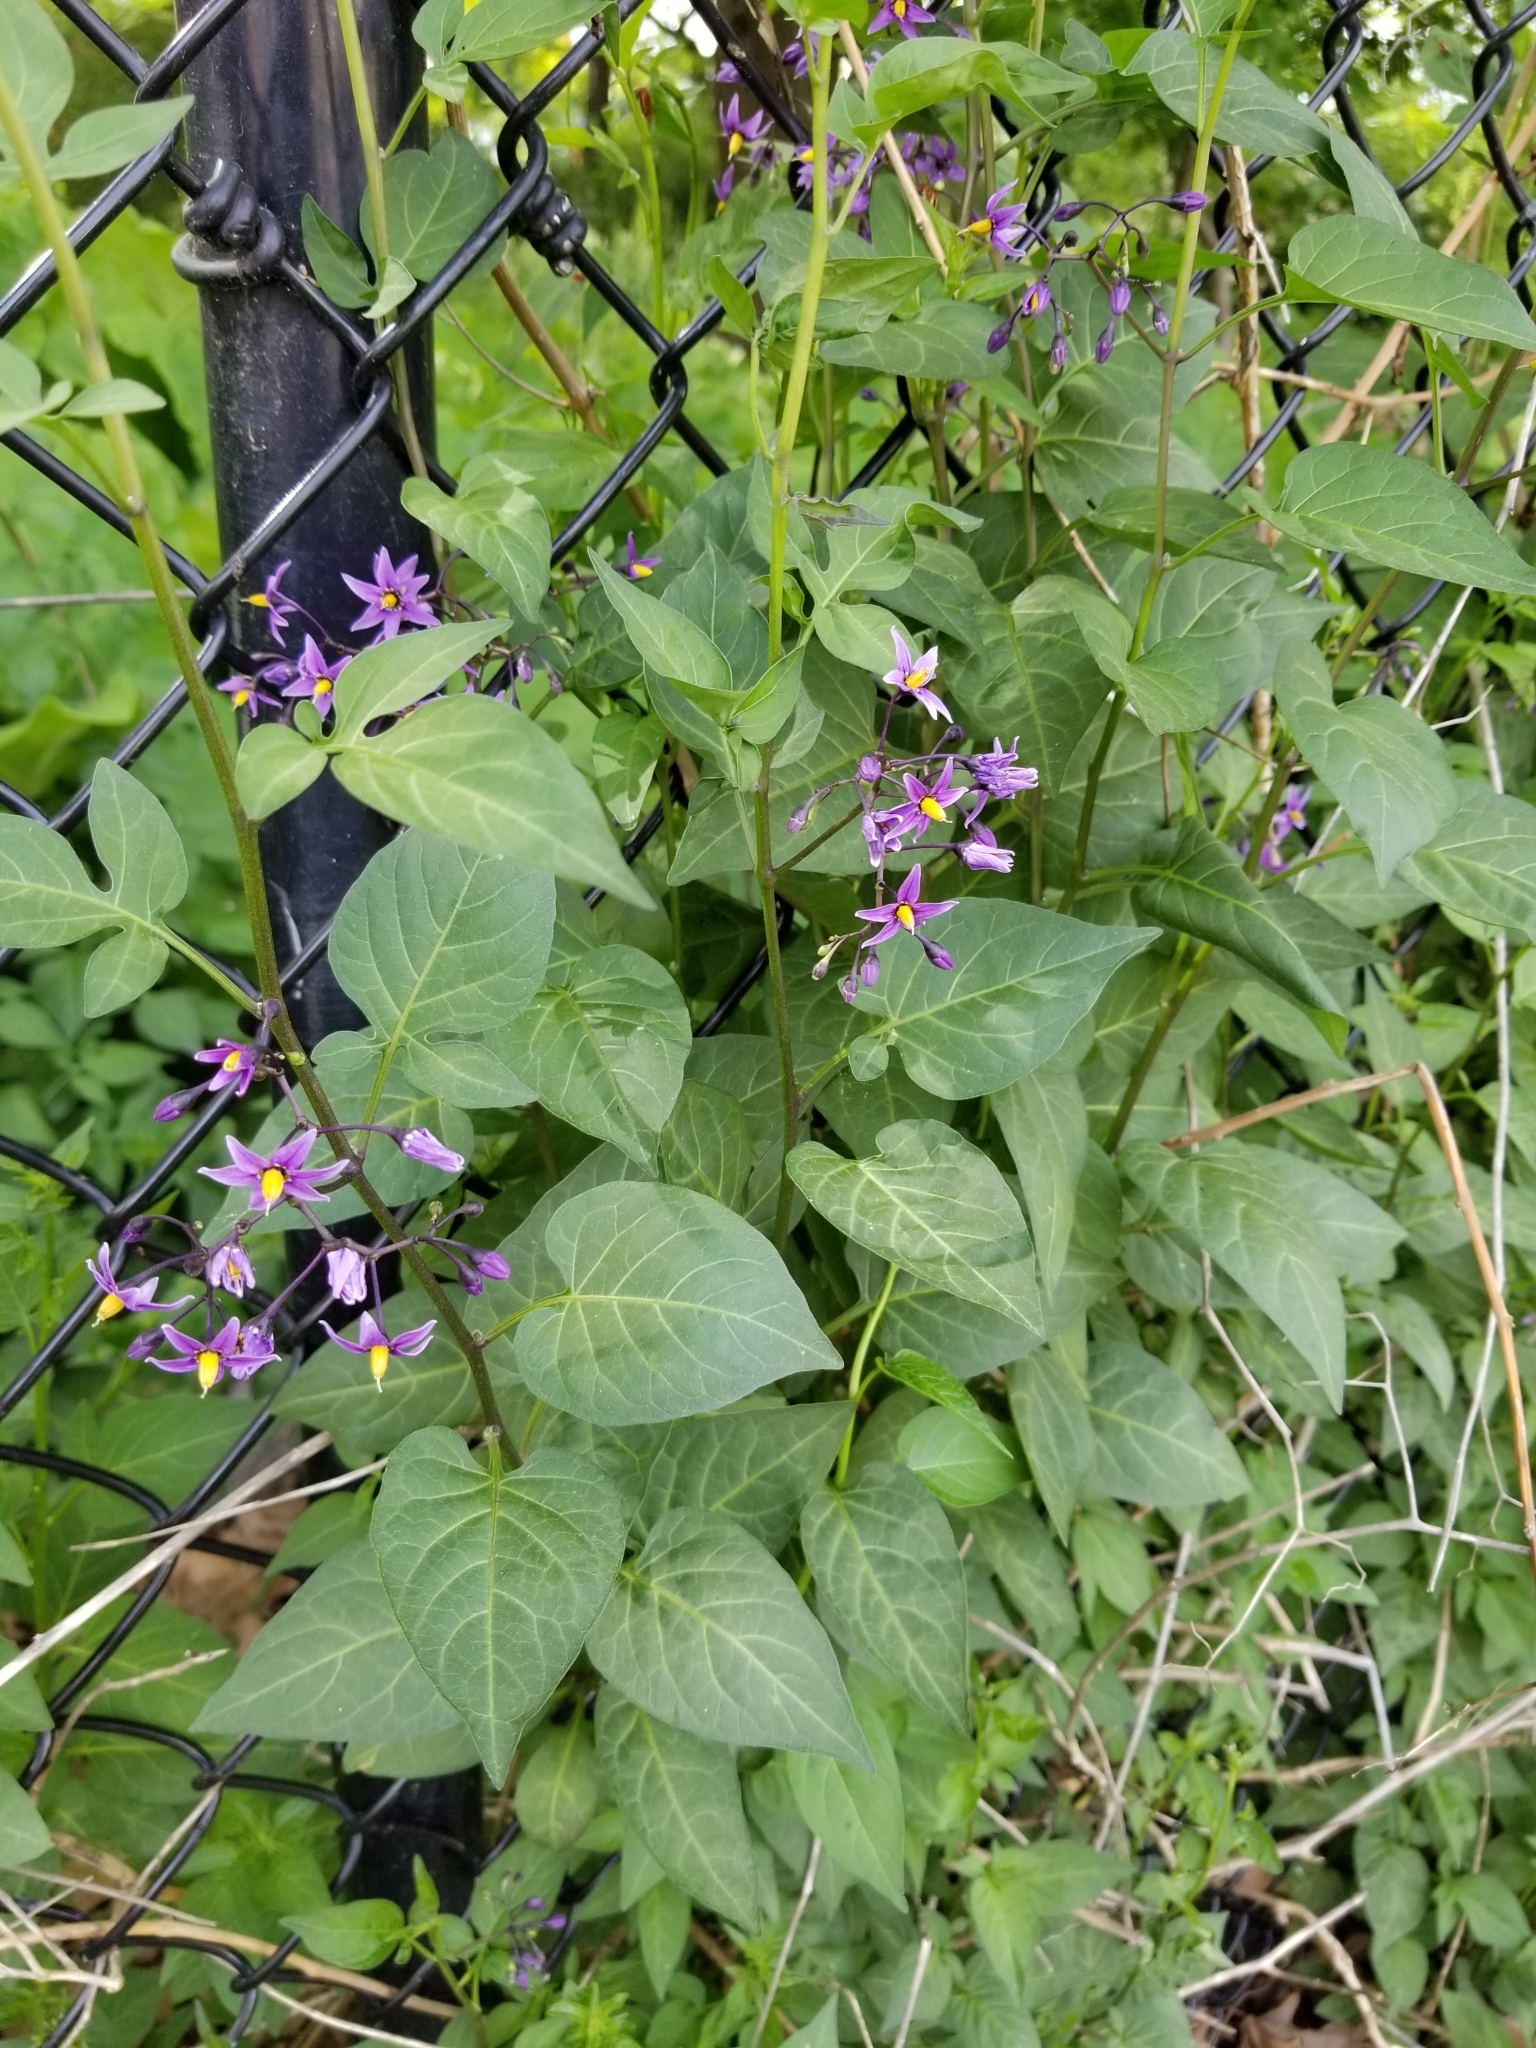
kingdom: Plantae
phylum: Tracheophyta
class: Magnoliopsida
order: Solanales
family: Solanaceae
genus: Solanum
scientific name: Solanum dulcamara
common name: Climbing nightshade
